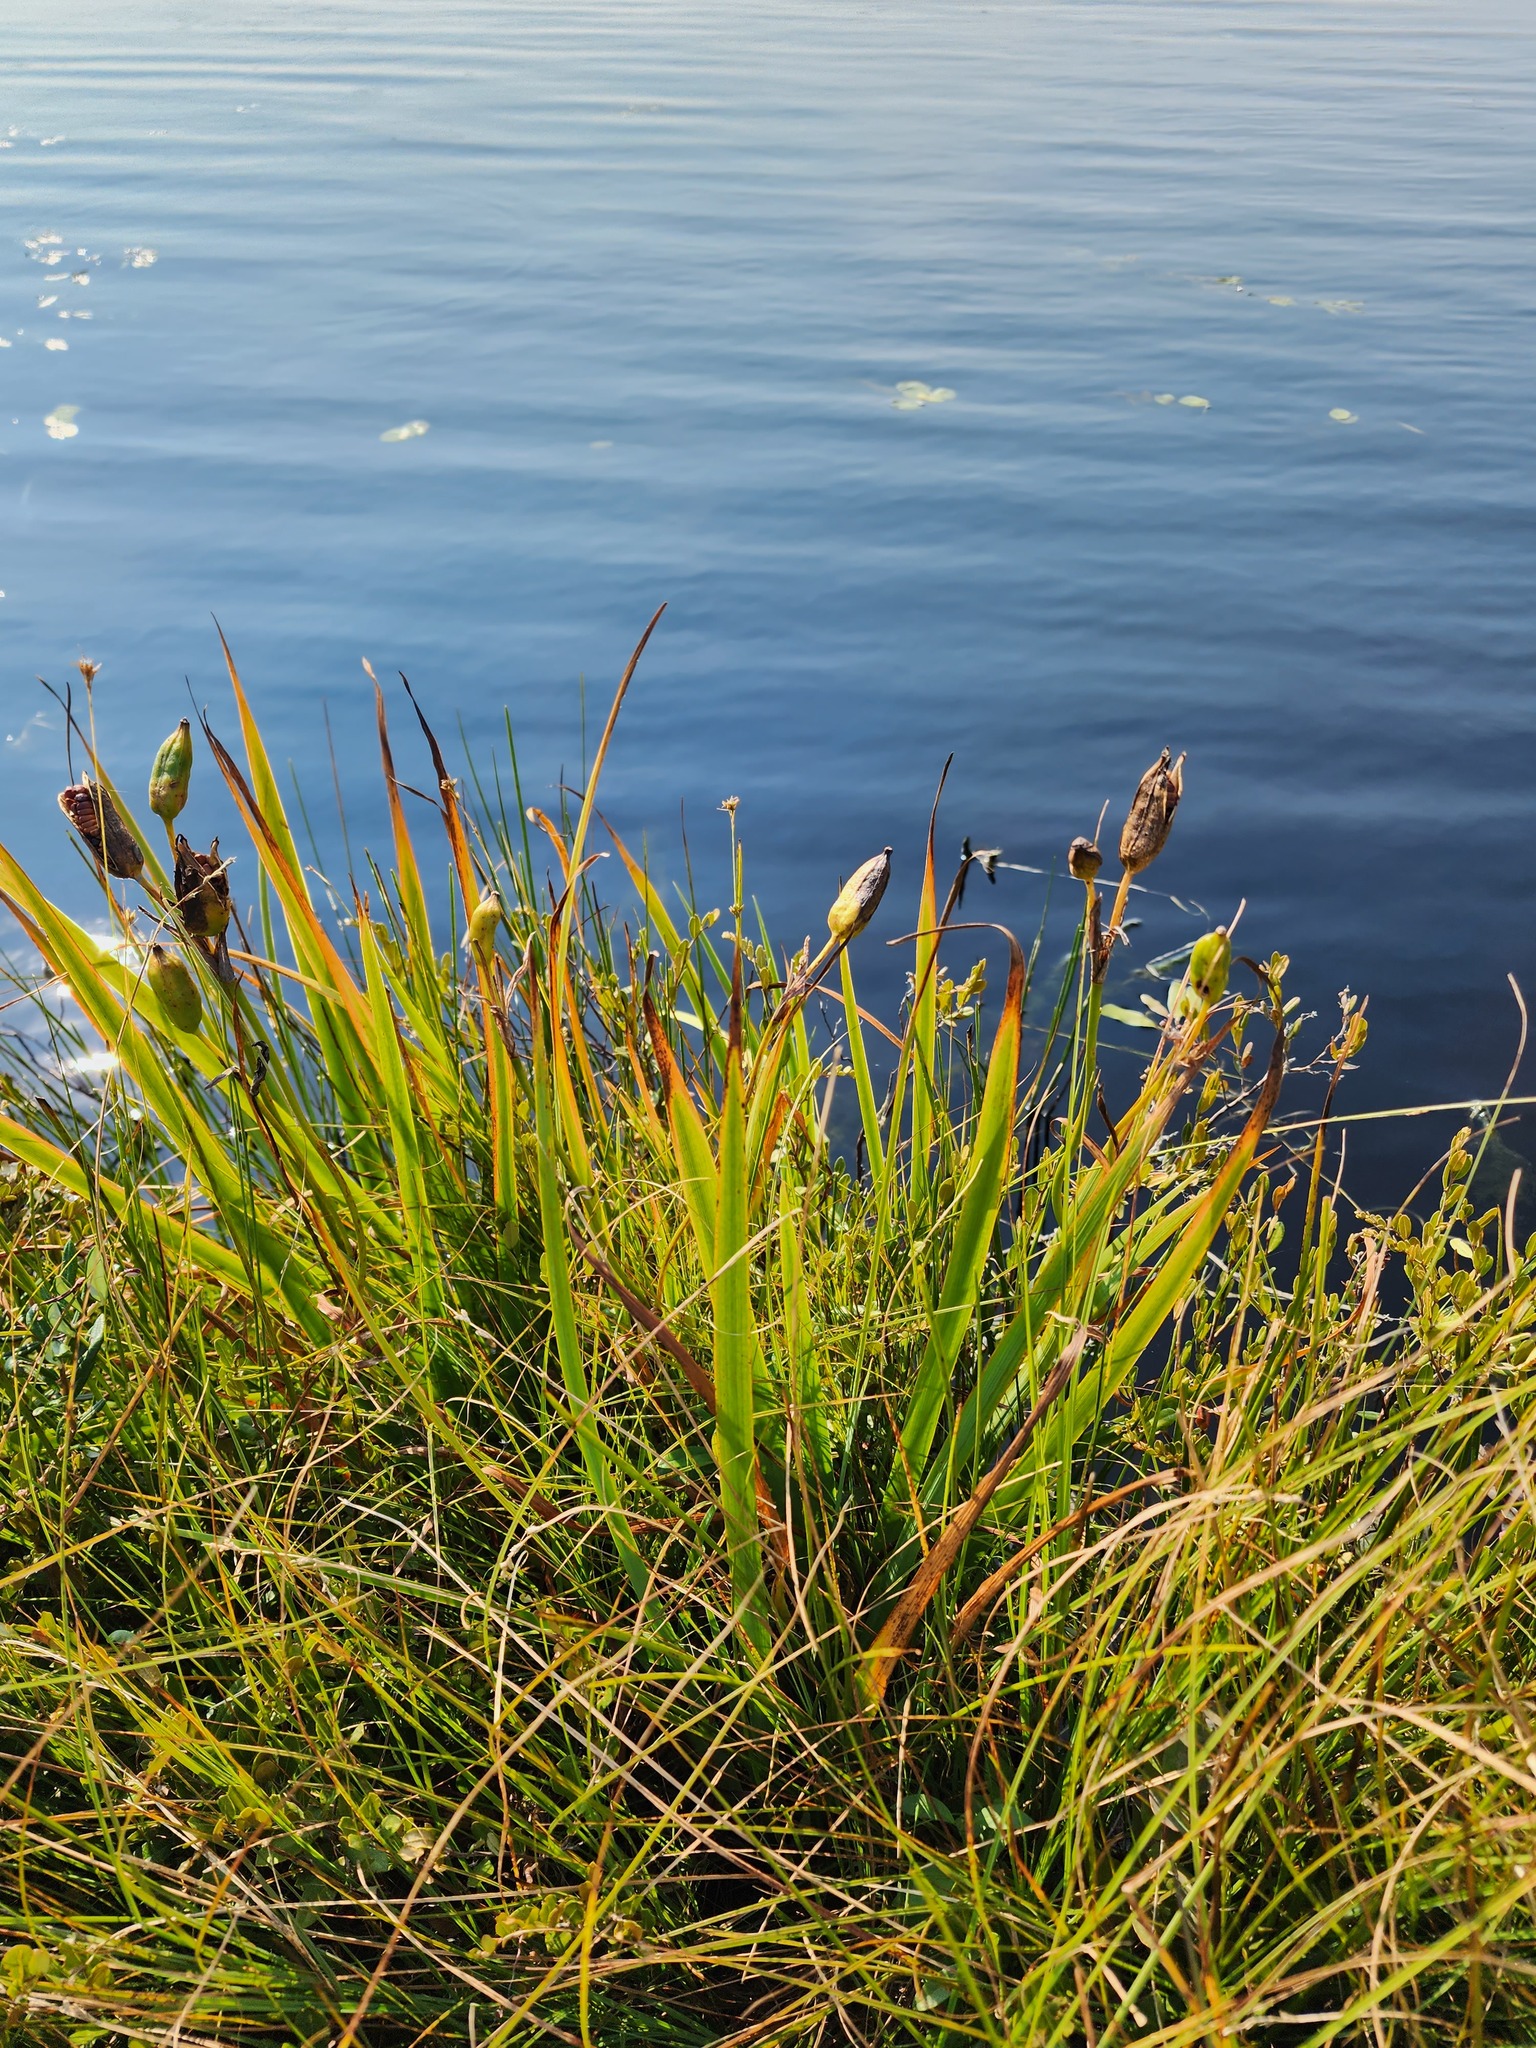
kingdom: Plantae
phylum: Tracheophyta
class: Liliopsida
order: Asparagales
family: Iridaceae
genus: Iris
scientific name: Iris versicolor
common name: Purple iris
